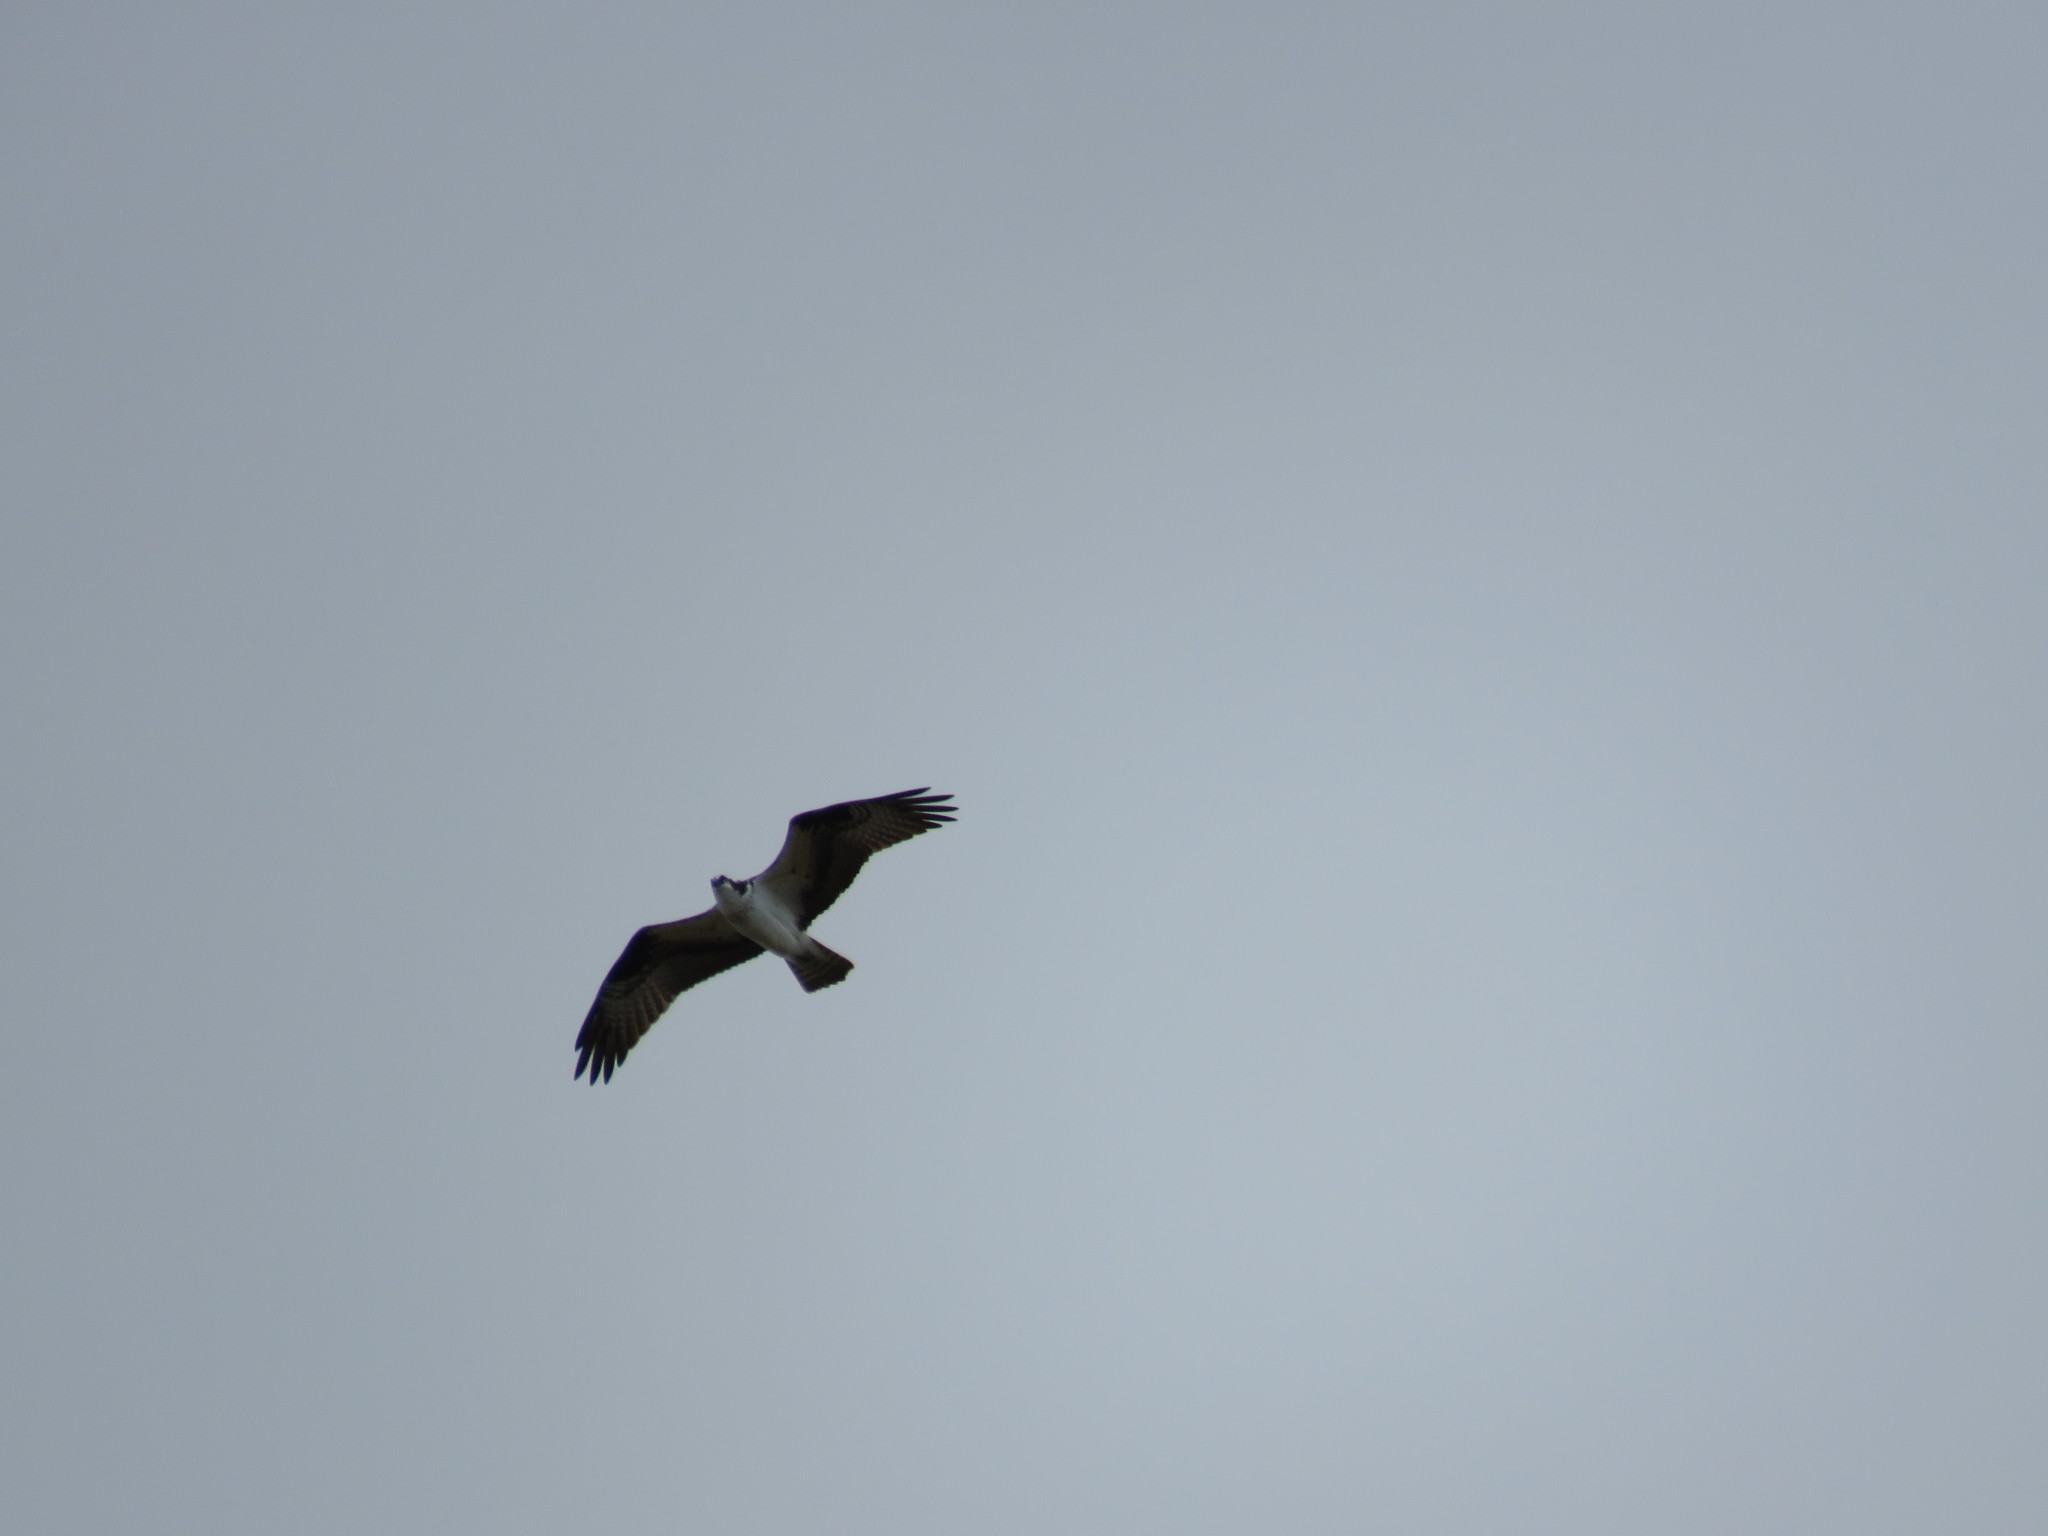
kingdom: Animalia
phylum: Chordata
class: Aves
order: Accipitriformes
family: Pandionidae
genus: Pandion
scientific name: Pandion haliaetus
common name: Osprey
